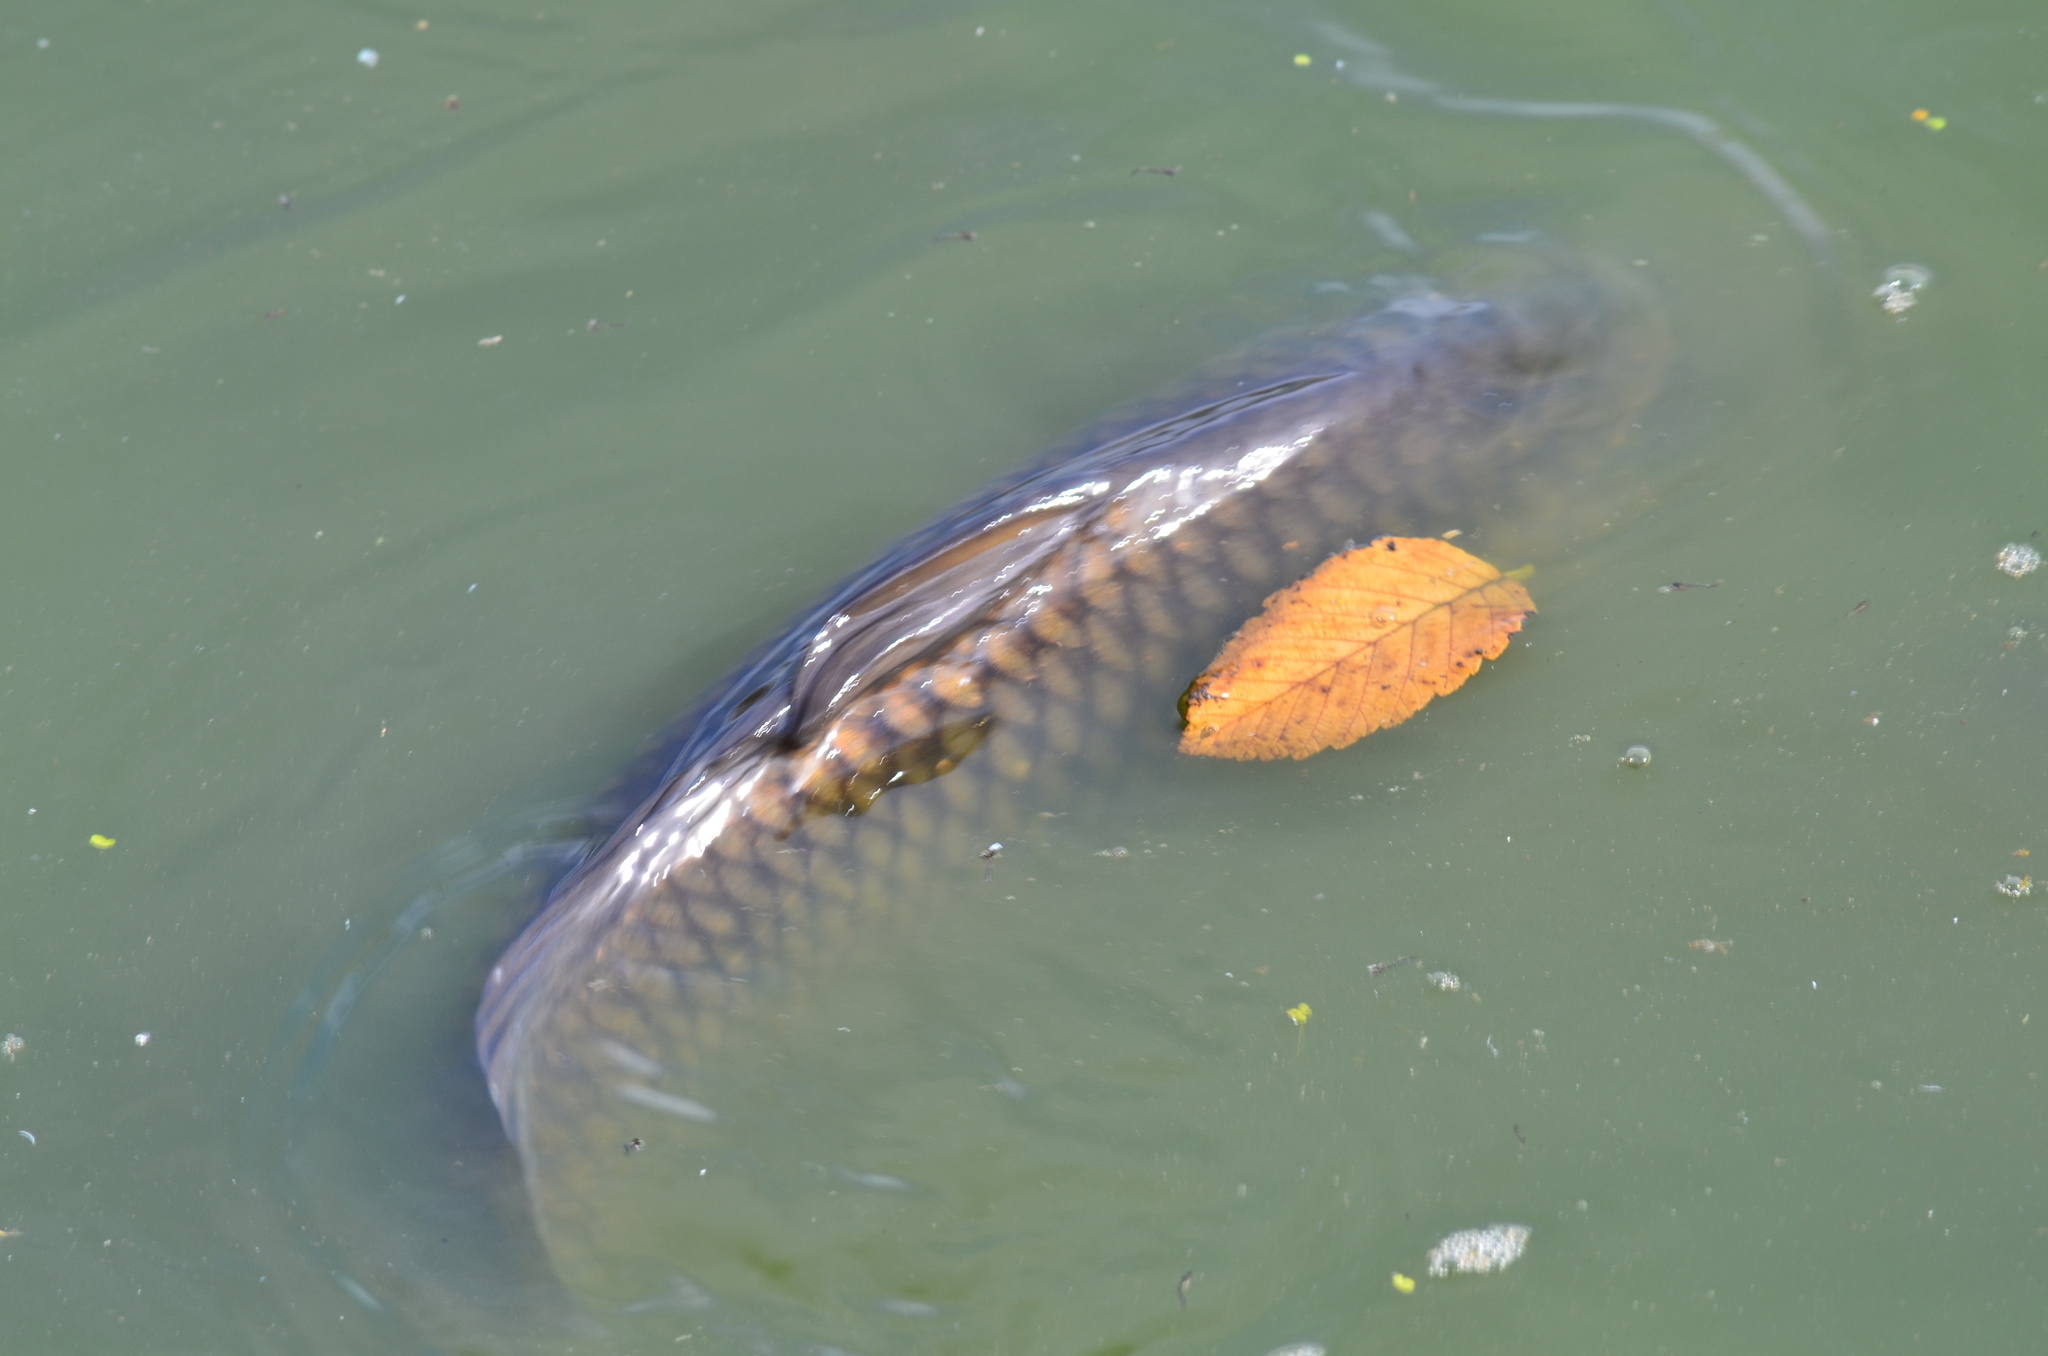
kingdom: Animalia
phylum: Chordata
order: Cypriniformes
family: Cyprinidae
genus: Cyprinus
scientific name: Cyprinus carpio
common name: Common carp
